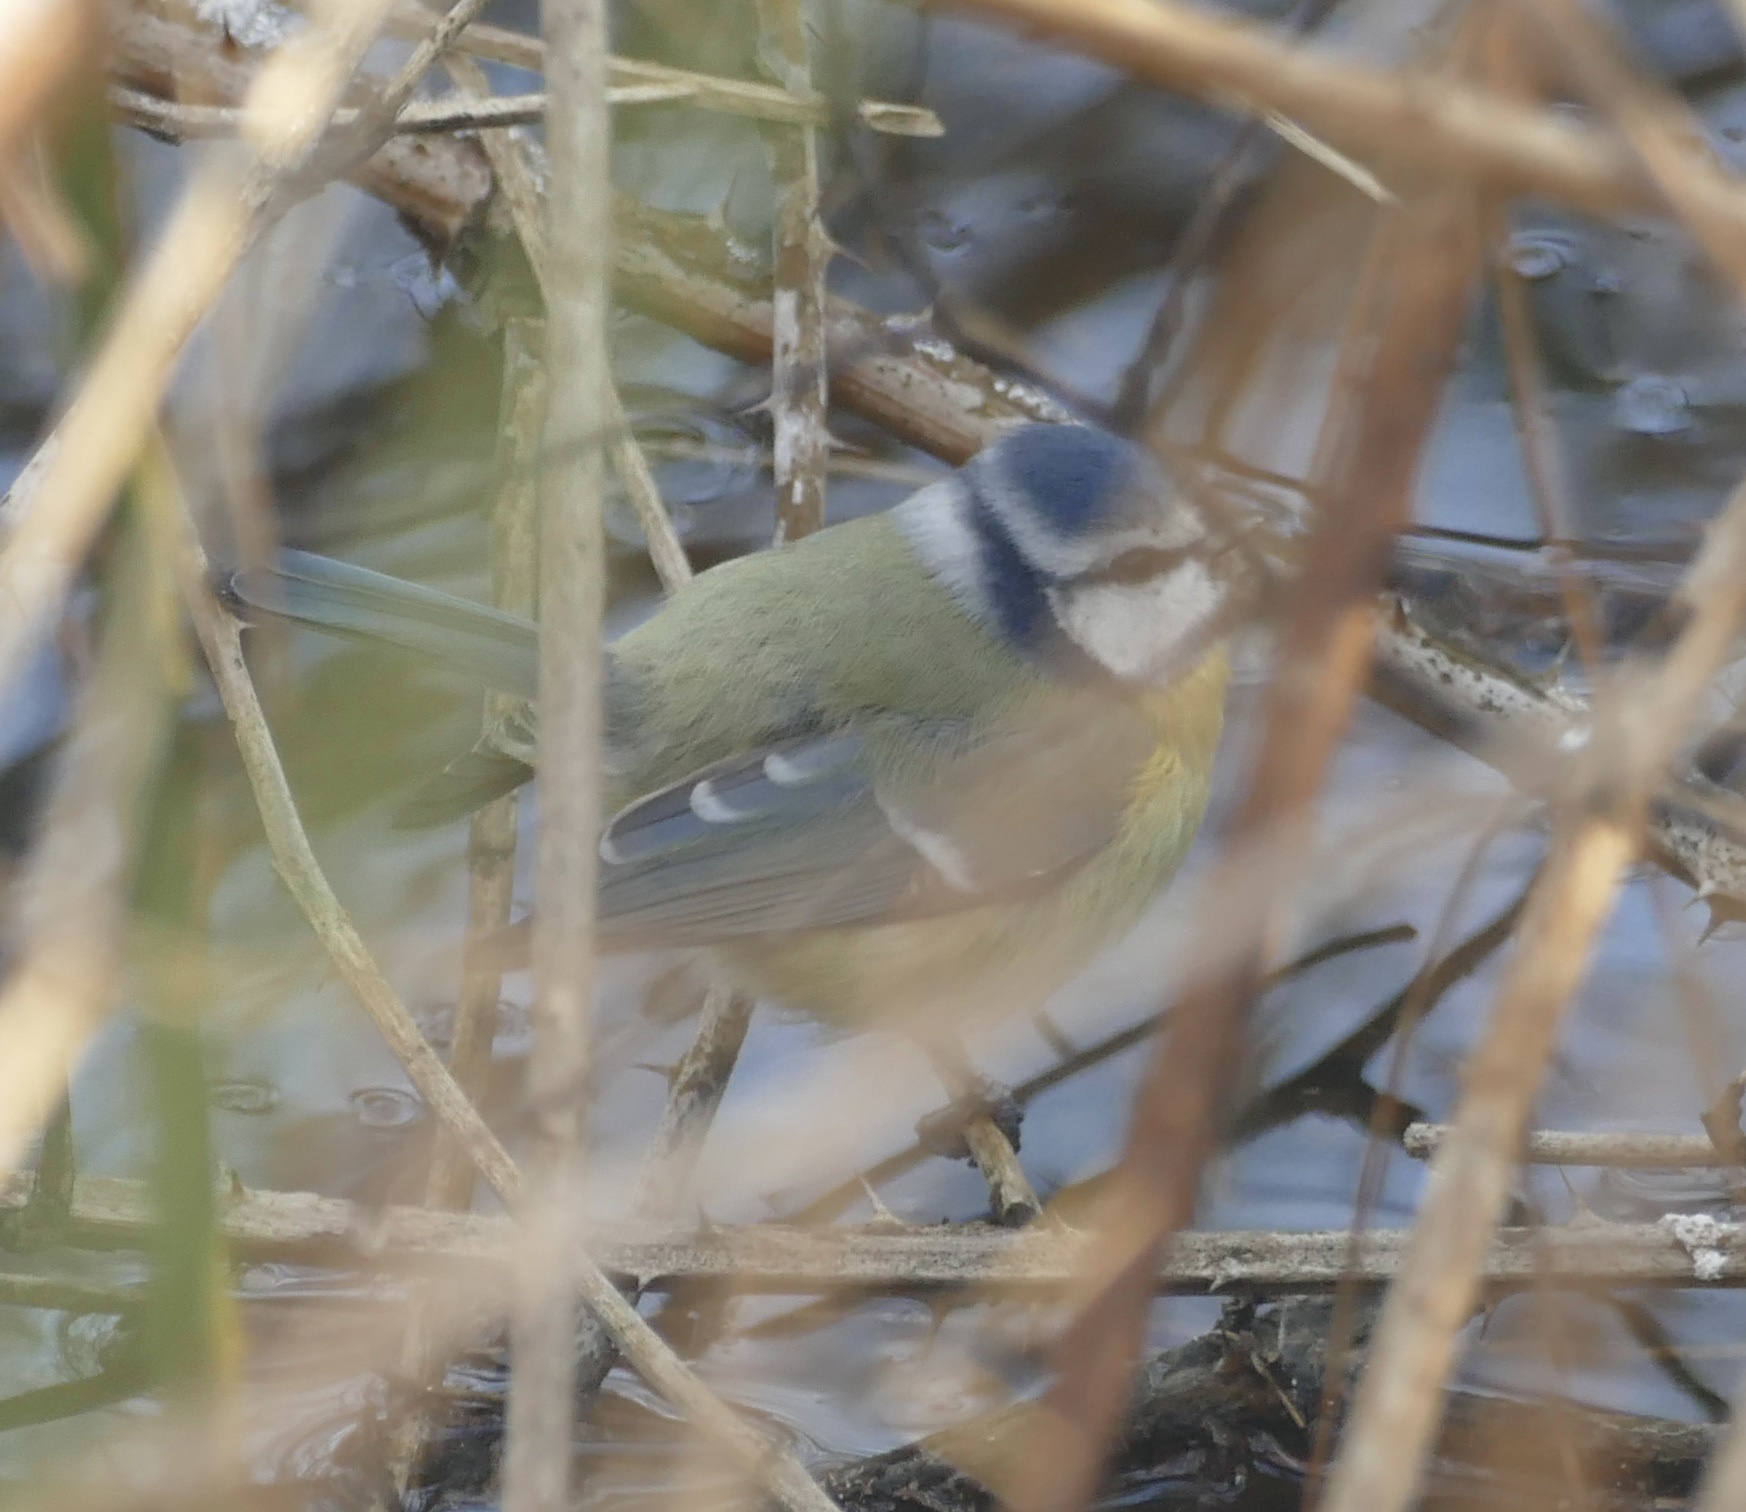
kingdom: Animalia
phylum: Chordata
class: Aves
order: Passeriformes
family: Paridae
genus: Cyanistes
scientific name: Cyanistes caeruleus
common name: Eurasian blue tit
